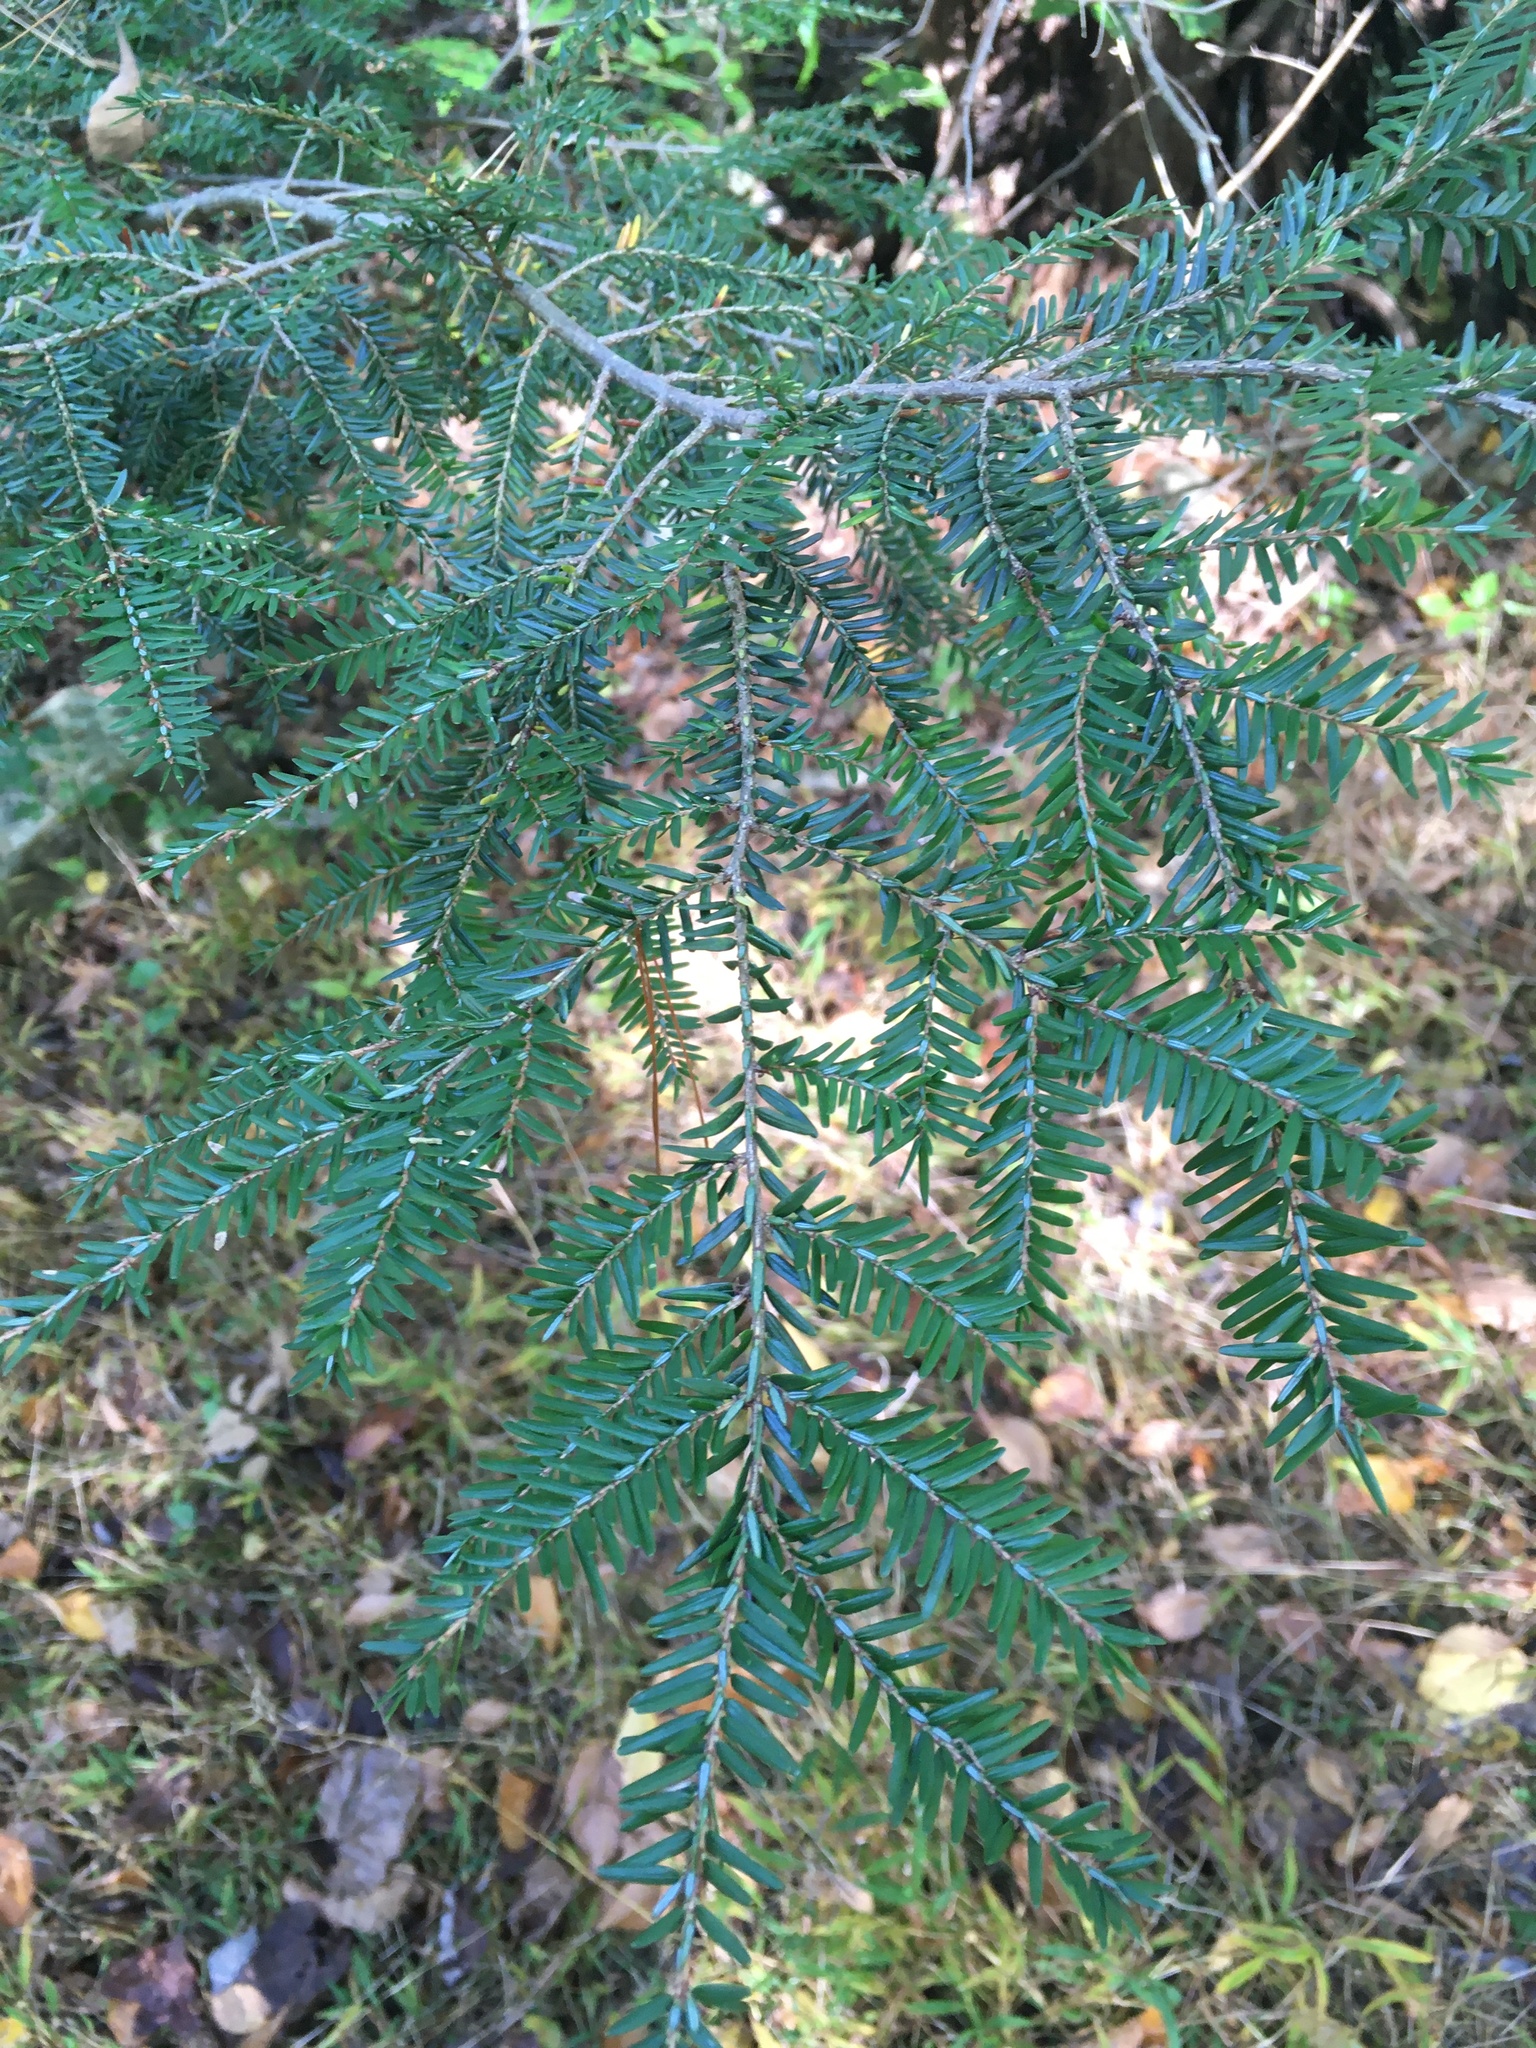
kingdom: Plantae
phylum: Tracheophyta
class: Pinopsida
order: Pinales
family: Pinaceae
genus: Tsuga
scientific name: Tsuga canadensis
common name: Eastern hemlock
